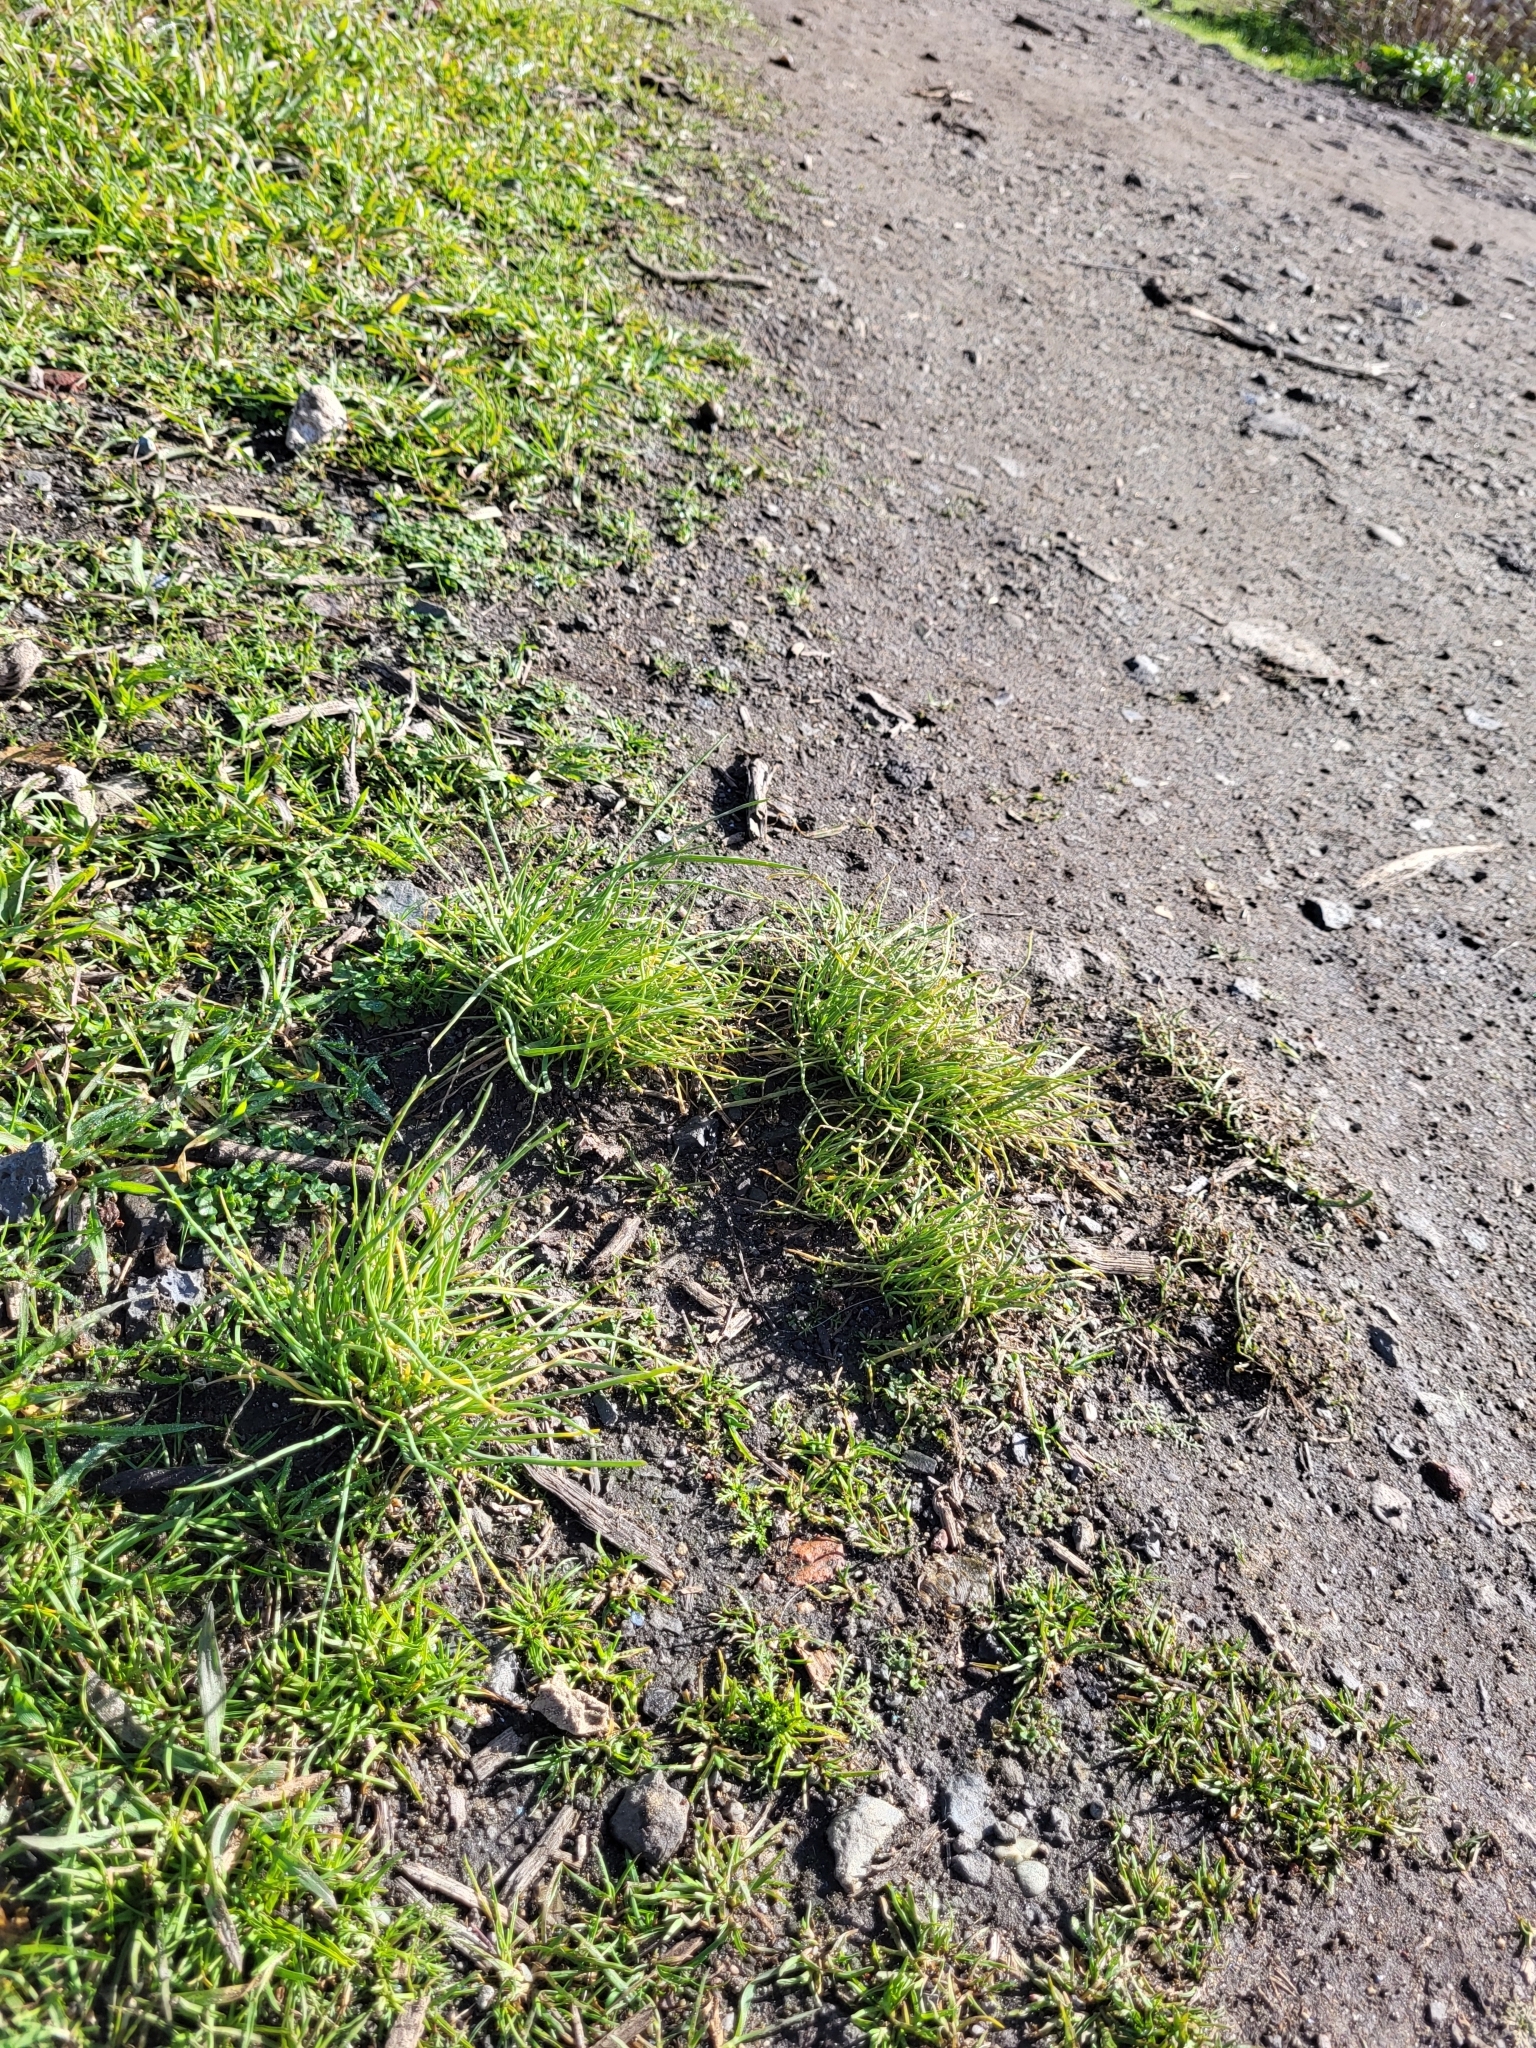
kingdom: Plantae
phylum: Tracheophyta
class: Liliopsida
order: Poales
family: Poaceae
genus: Parapholis
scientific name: Parapholis cylindrica
